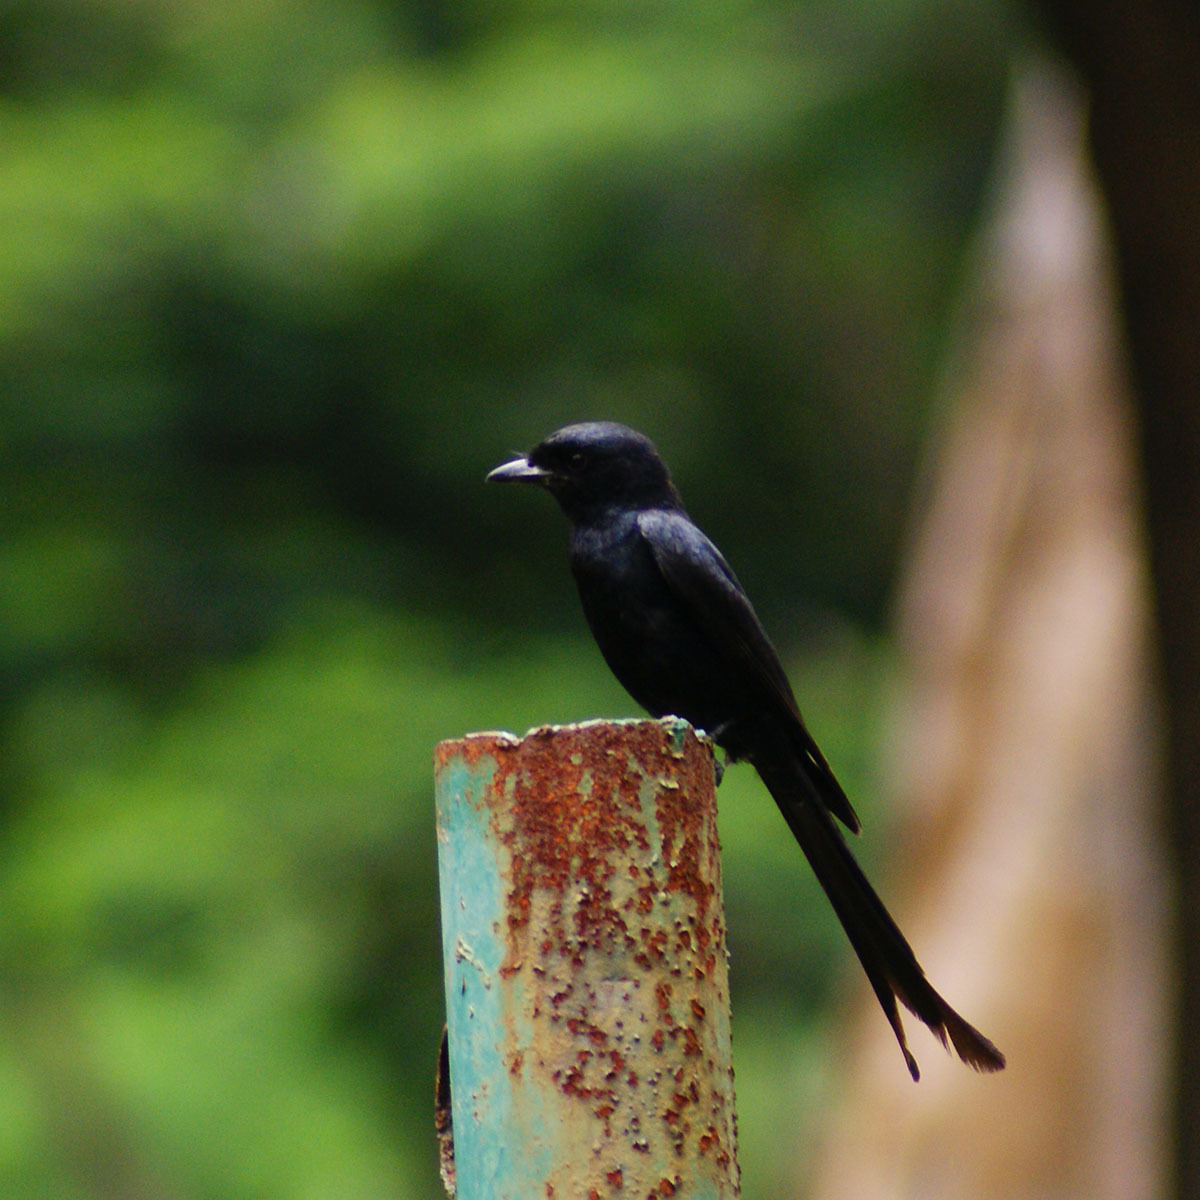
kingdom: Animalia
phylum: Chordata
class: Aves
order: Passeriformes
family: Dicruridae
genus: Dicrurus
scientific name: Dicrurus macrocercus
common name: Black drongo
